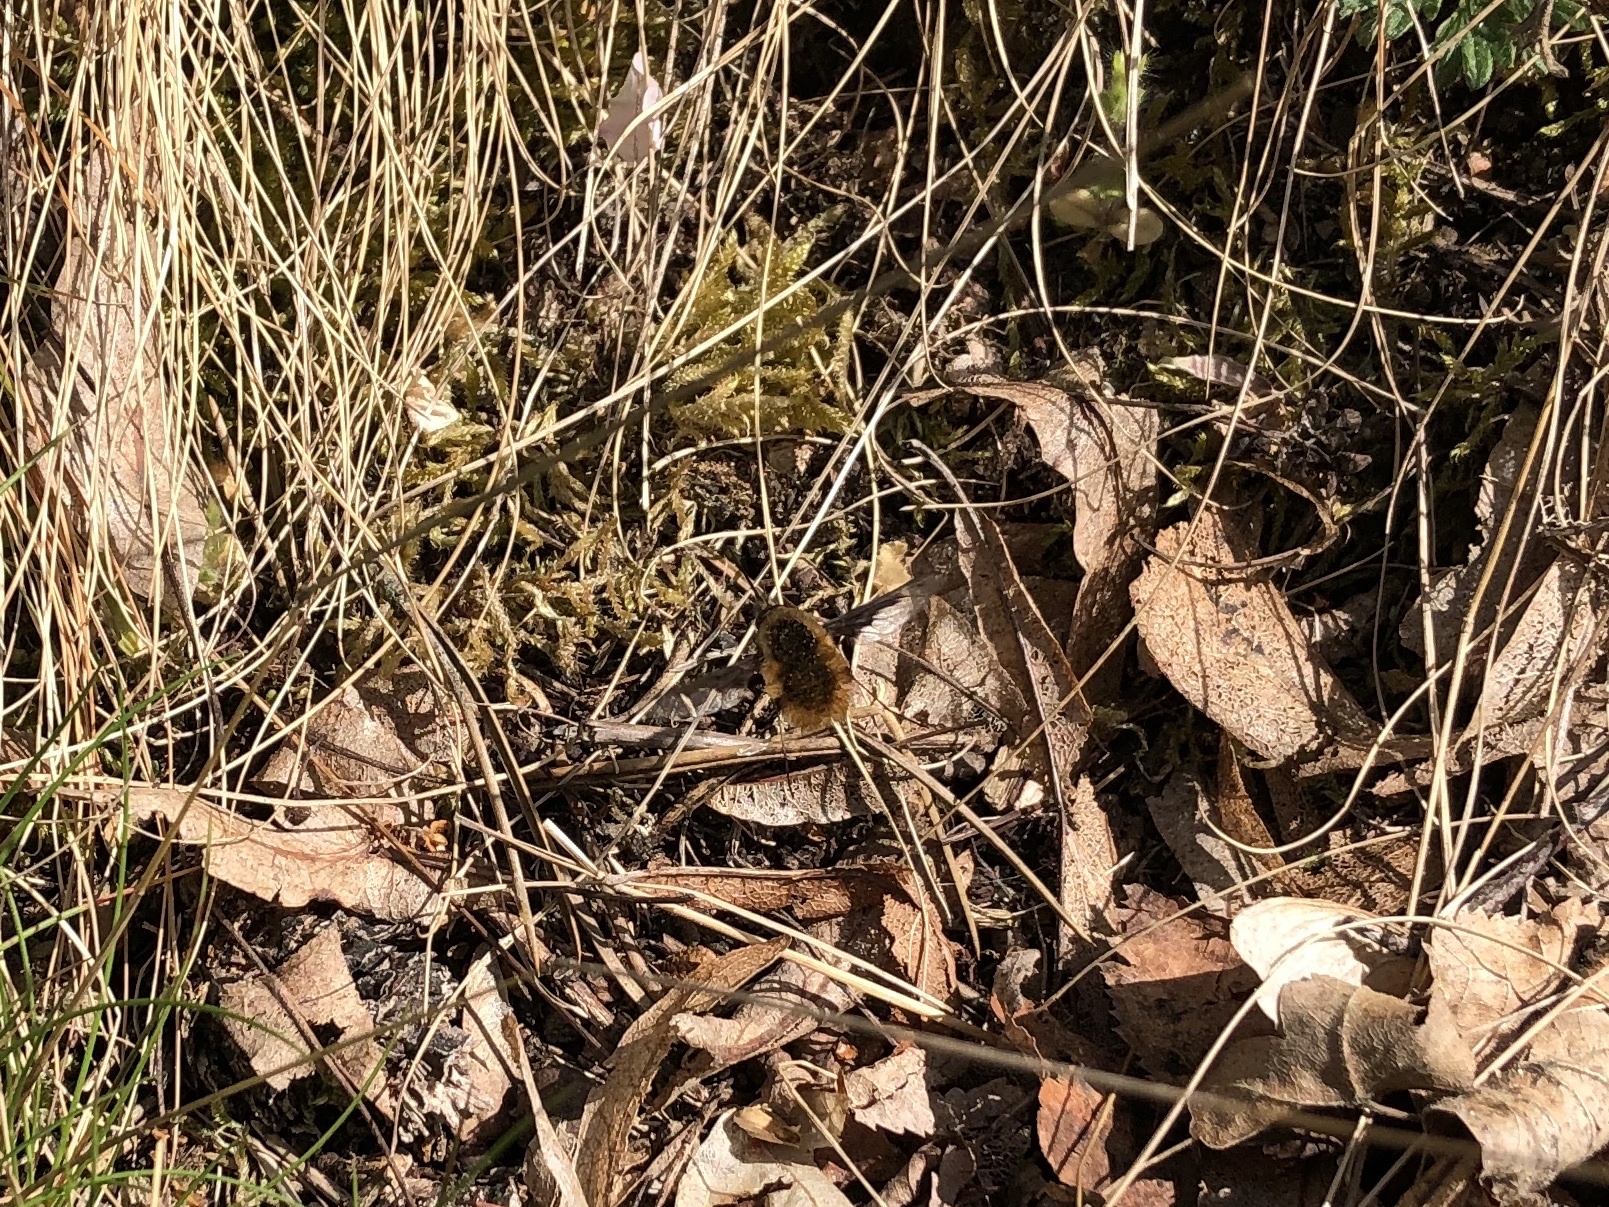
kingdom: Animalia
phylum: Arthropoda
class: Insecta
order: Diptera
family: Bombyliidae
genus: Bombylius
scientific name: Bombylius major
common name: Bee fly
